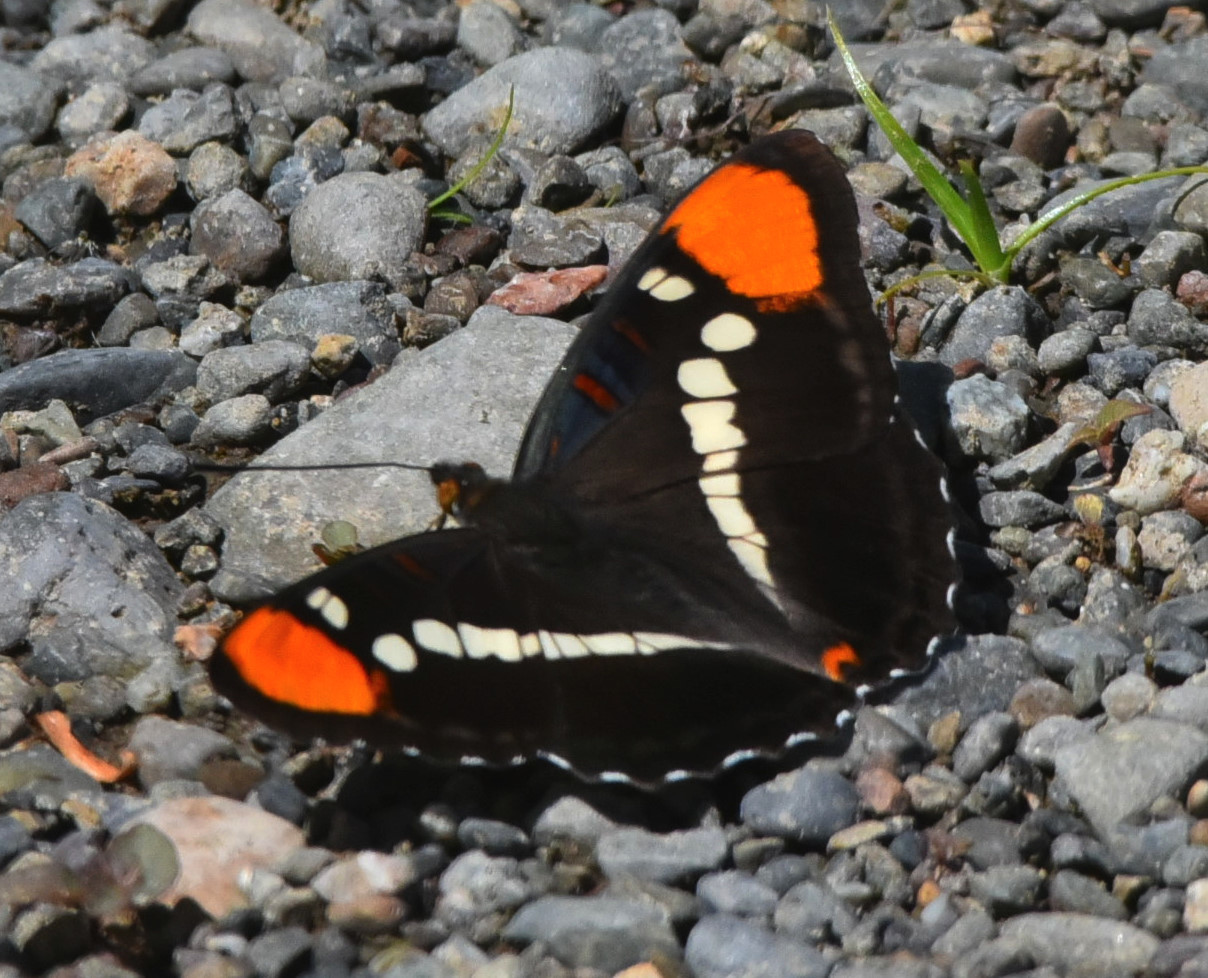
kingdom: Animalia
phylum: Arthropoda
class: Insecta
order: Lepidoptera
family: Nymphalidae
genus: Limenitis
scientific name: Limenitis bredowii
